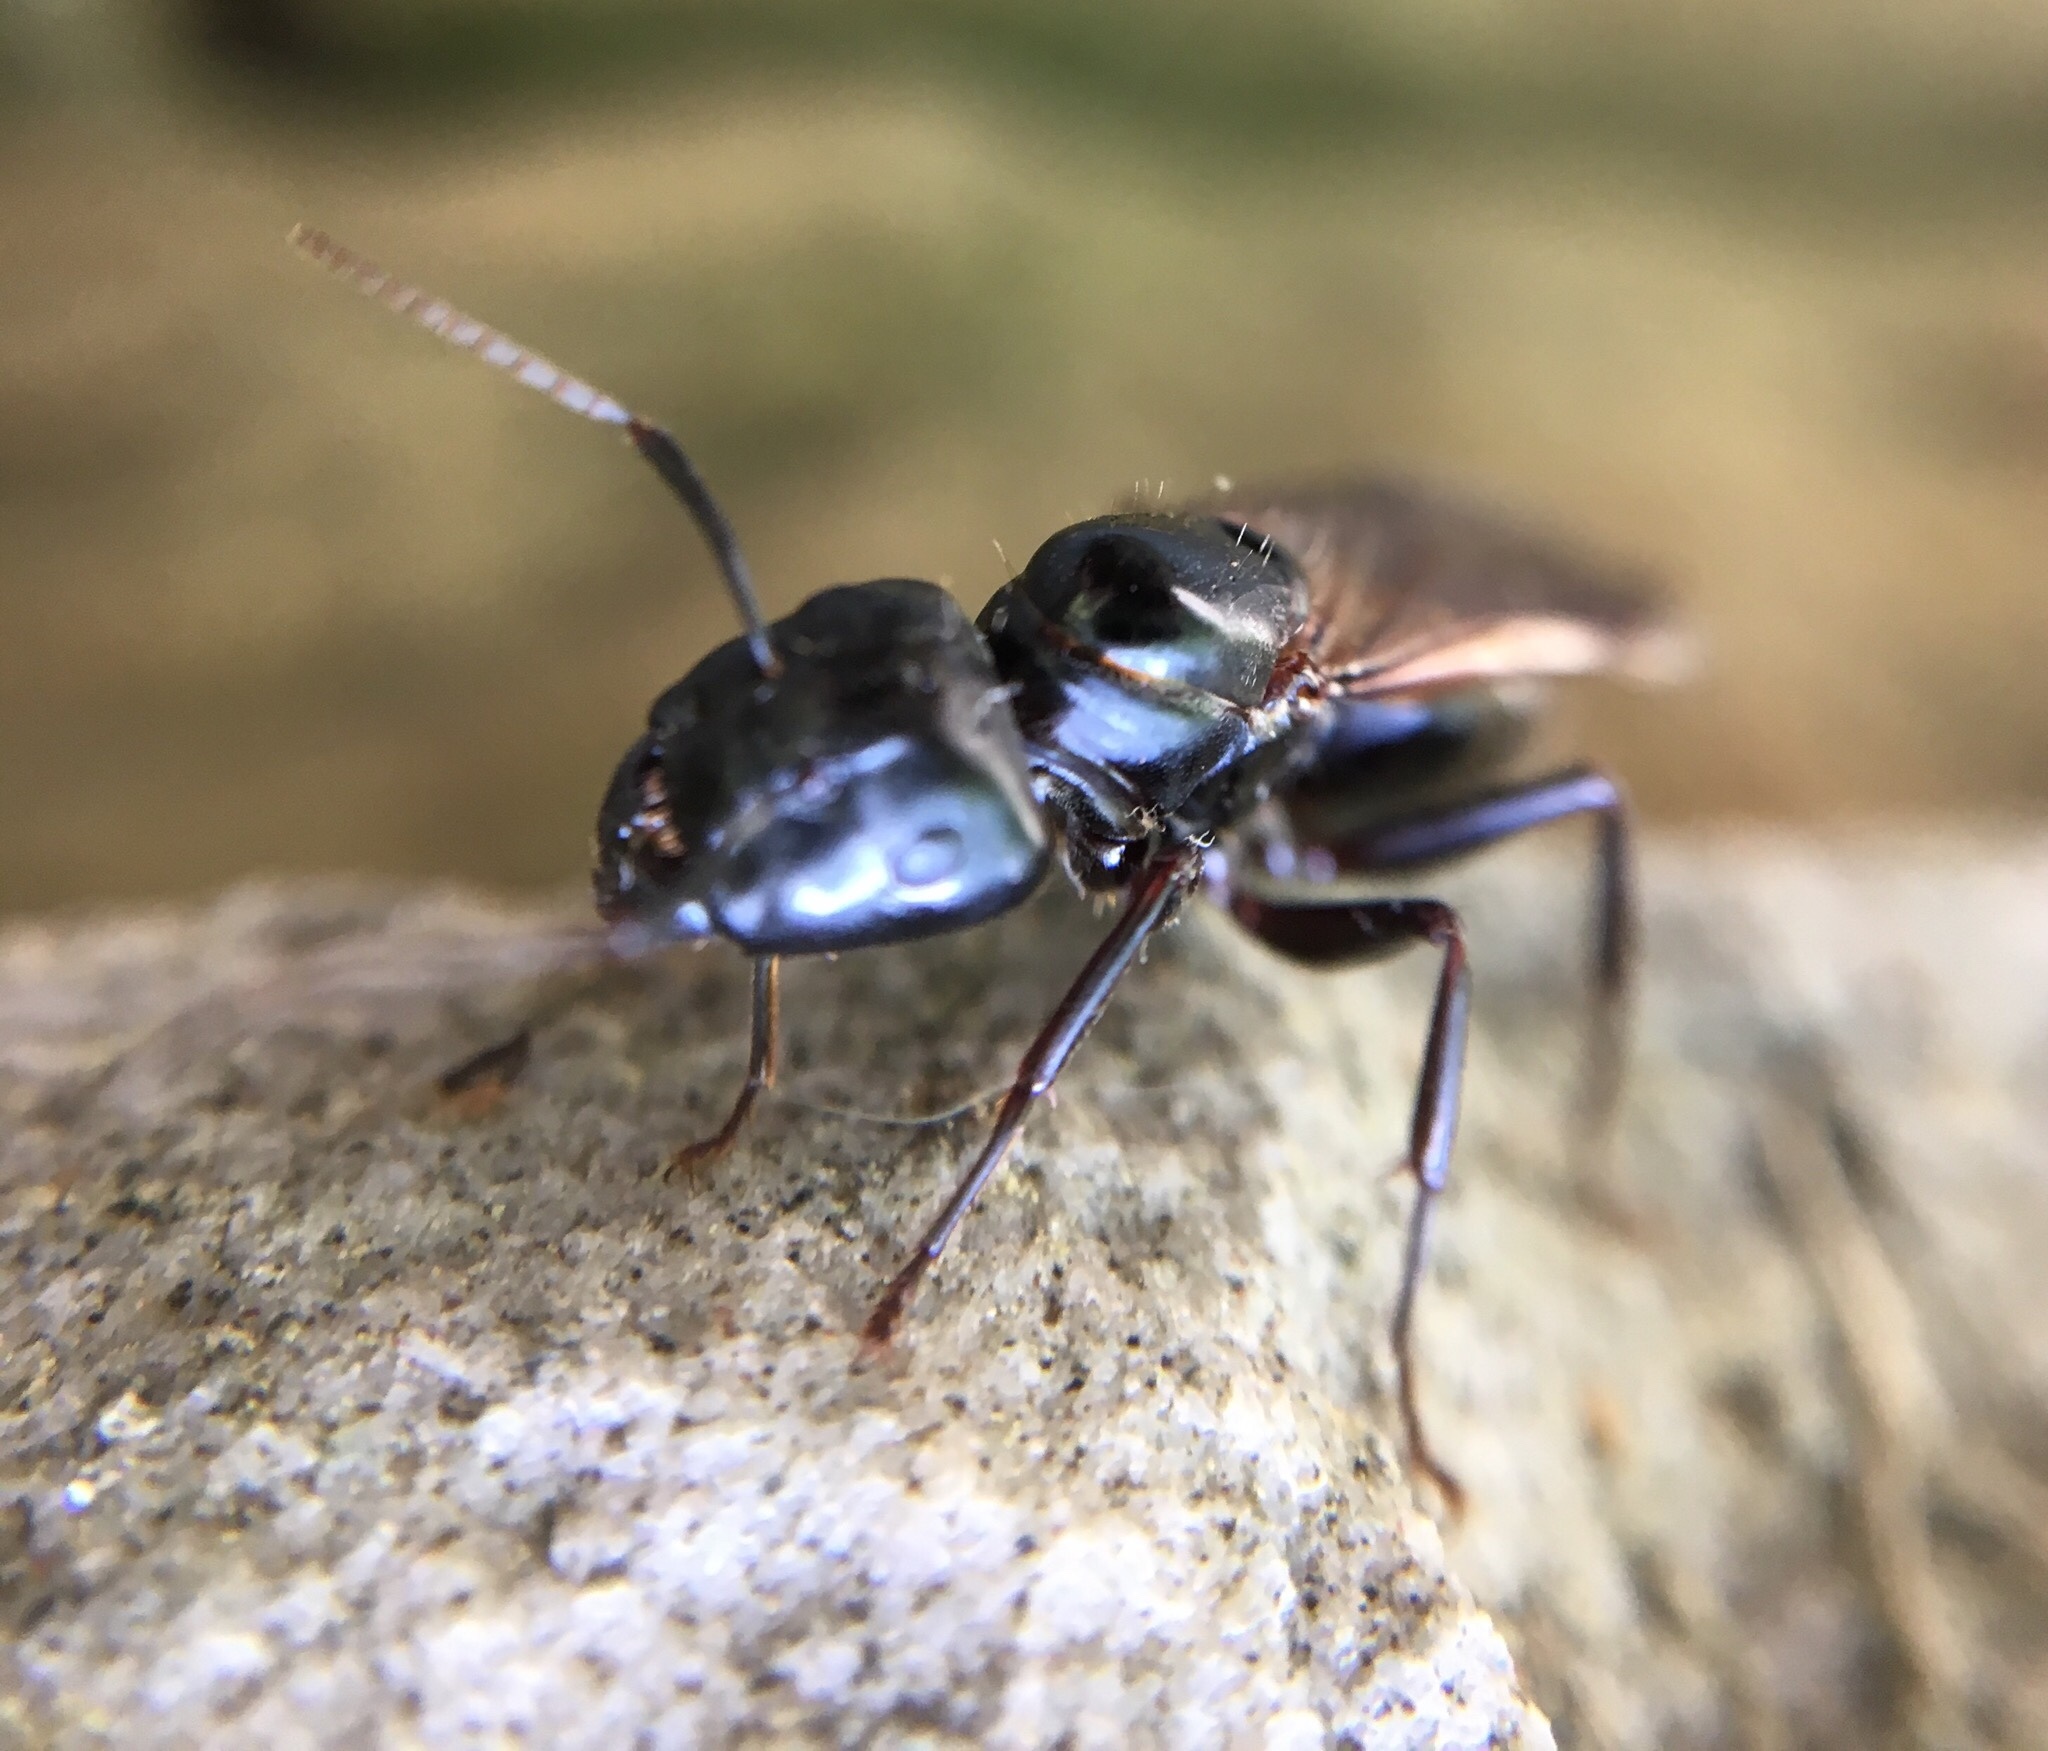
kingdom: Animalia
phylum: Arthropoda
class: Insecta
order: Hymenoptera
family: Formicidae
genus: Camponotus
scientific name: Camponotus pennsylvanicus
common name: Black carpenter ant
